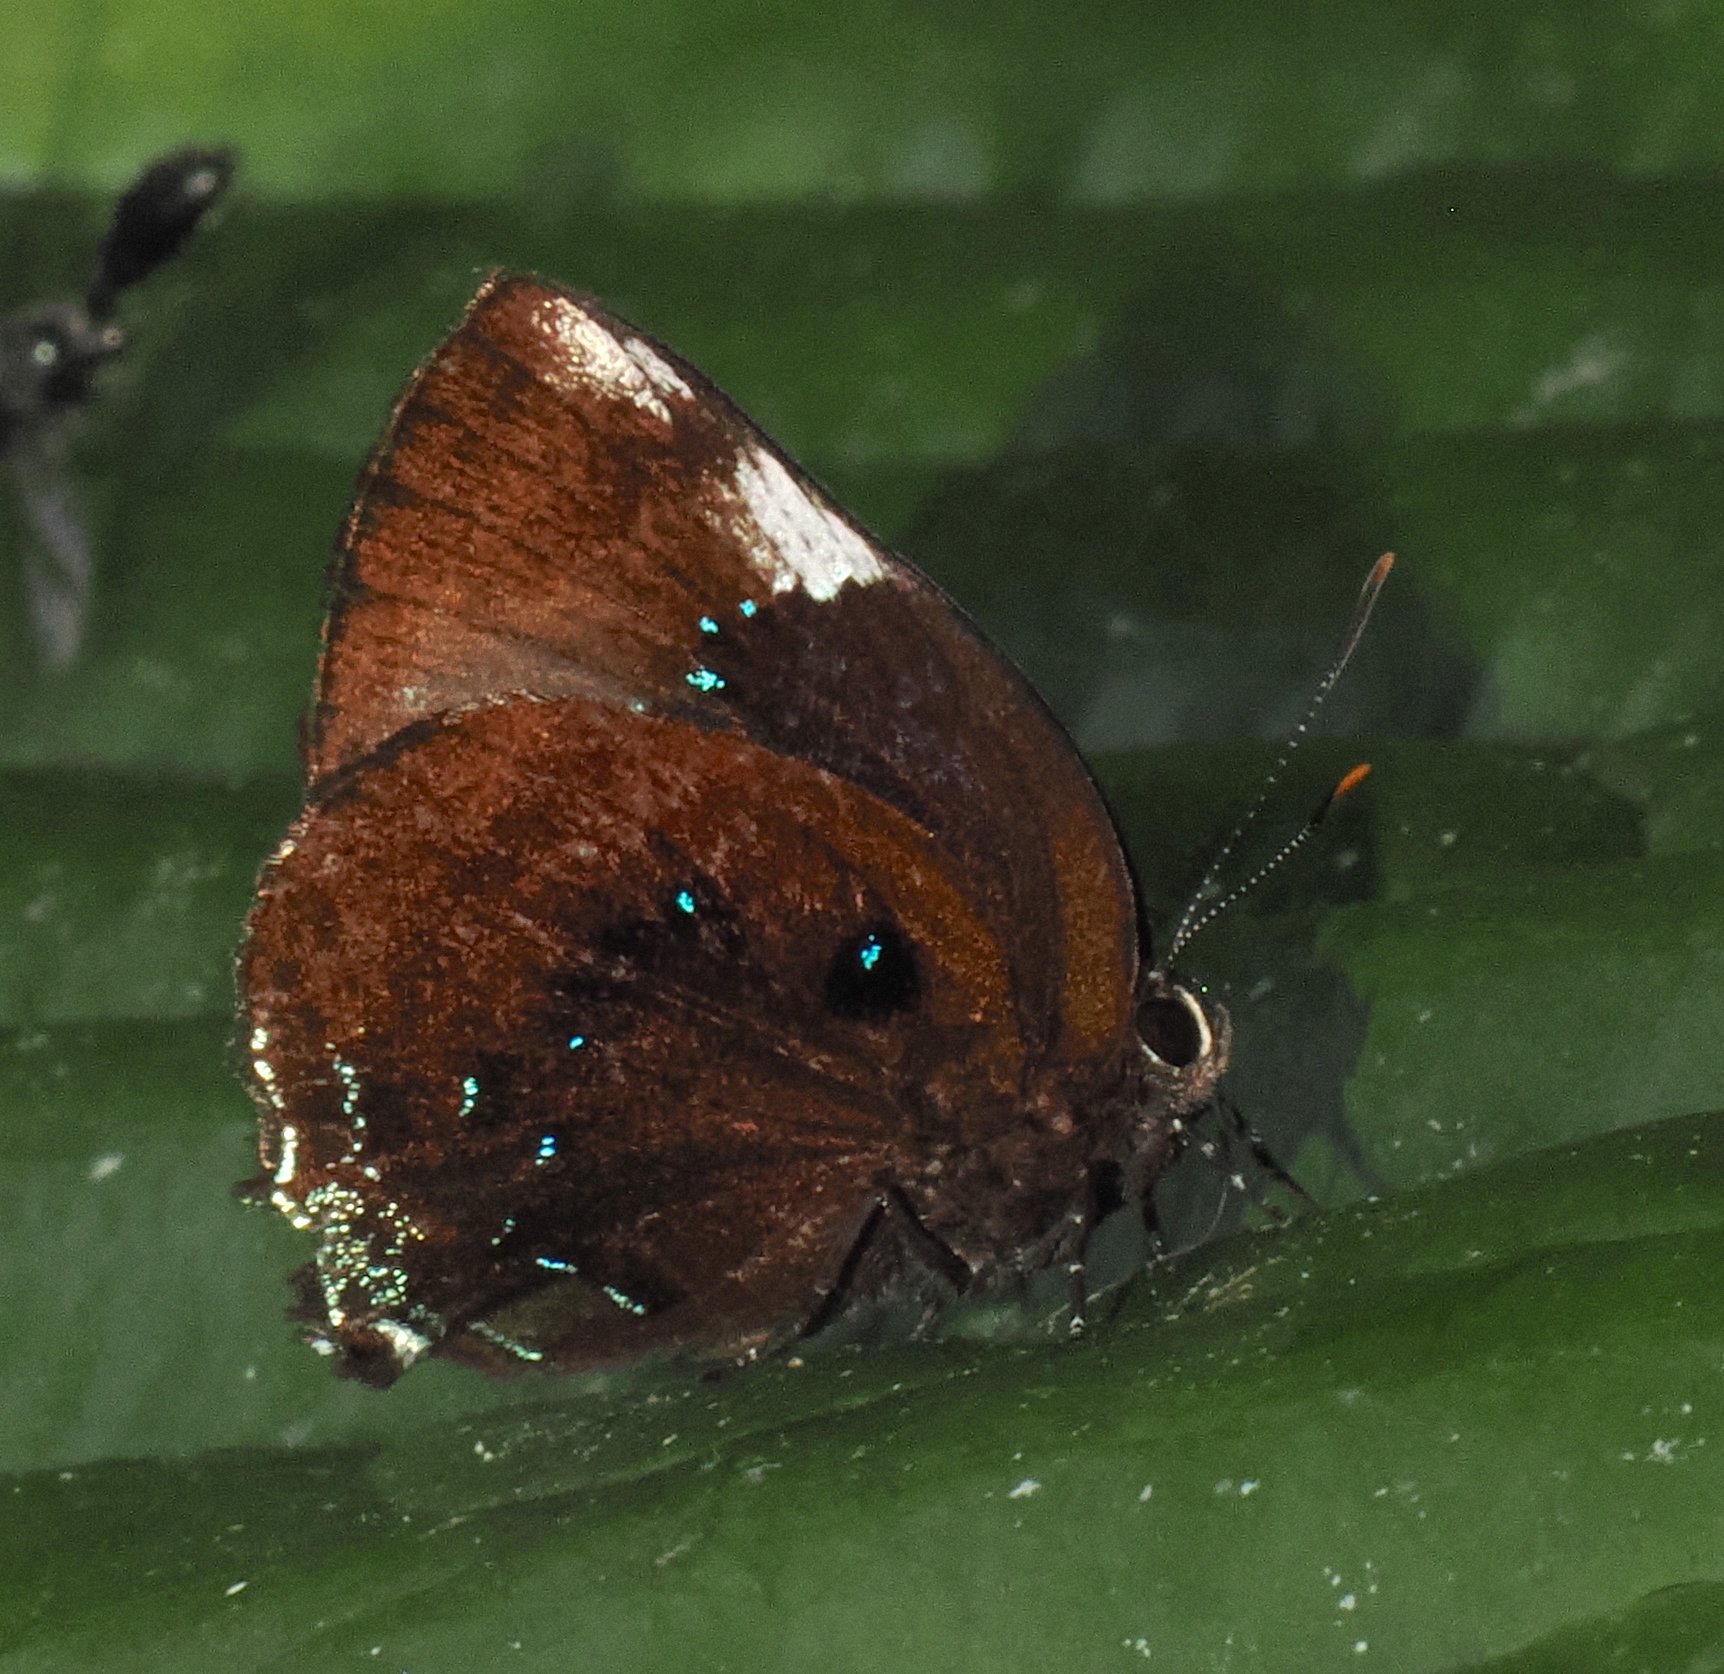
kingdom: Animalia
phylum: Arthropoda
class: Insecta
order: Lepidoptera
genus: Paraspiculatus
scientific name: Paraspiculatus noemi
